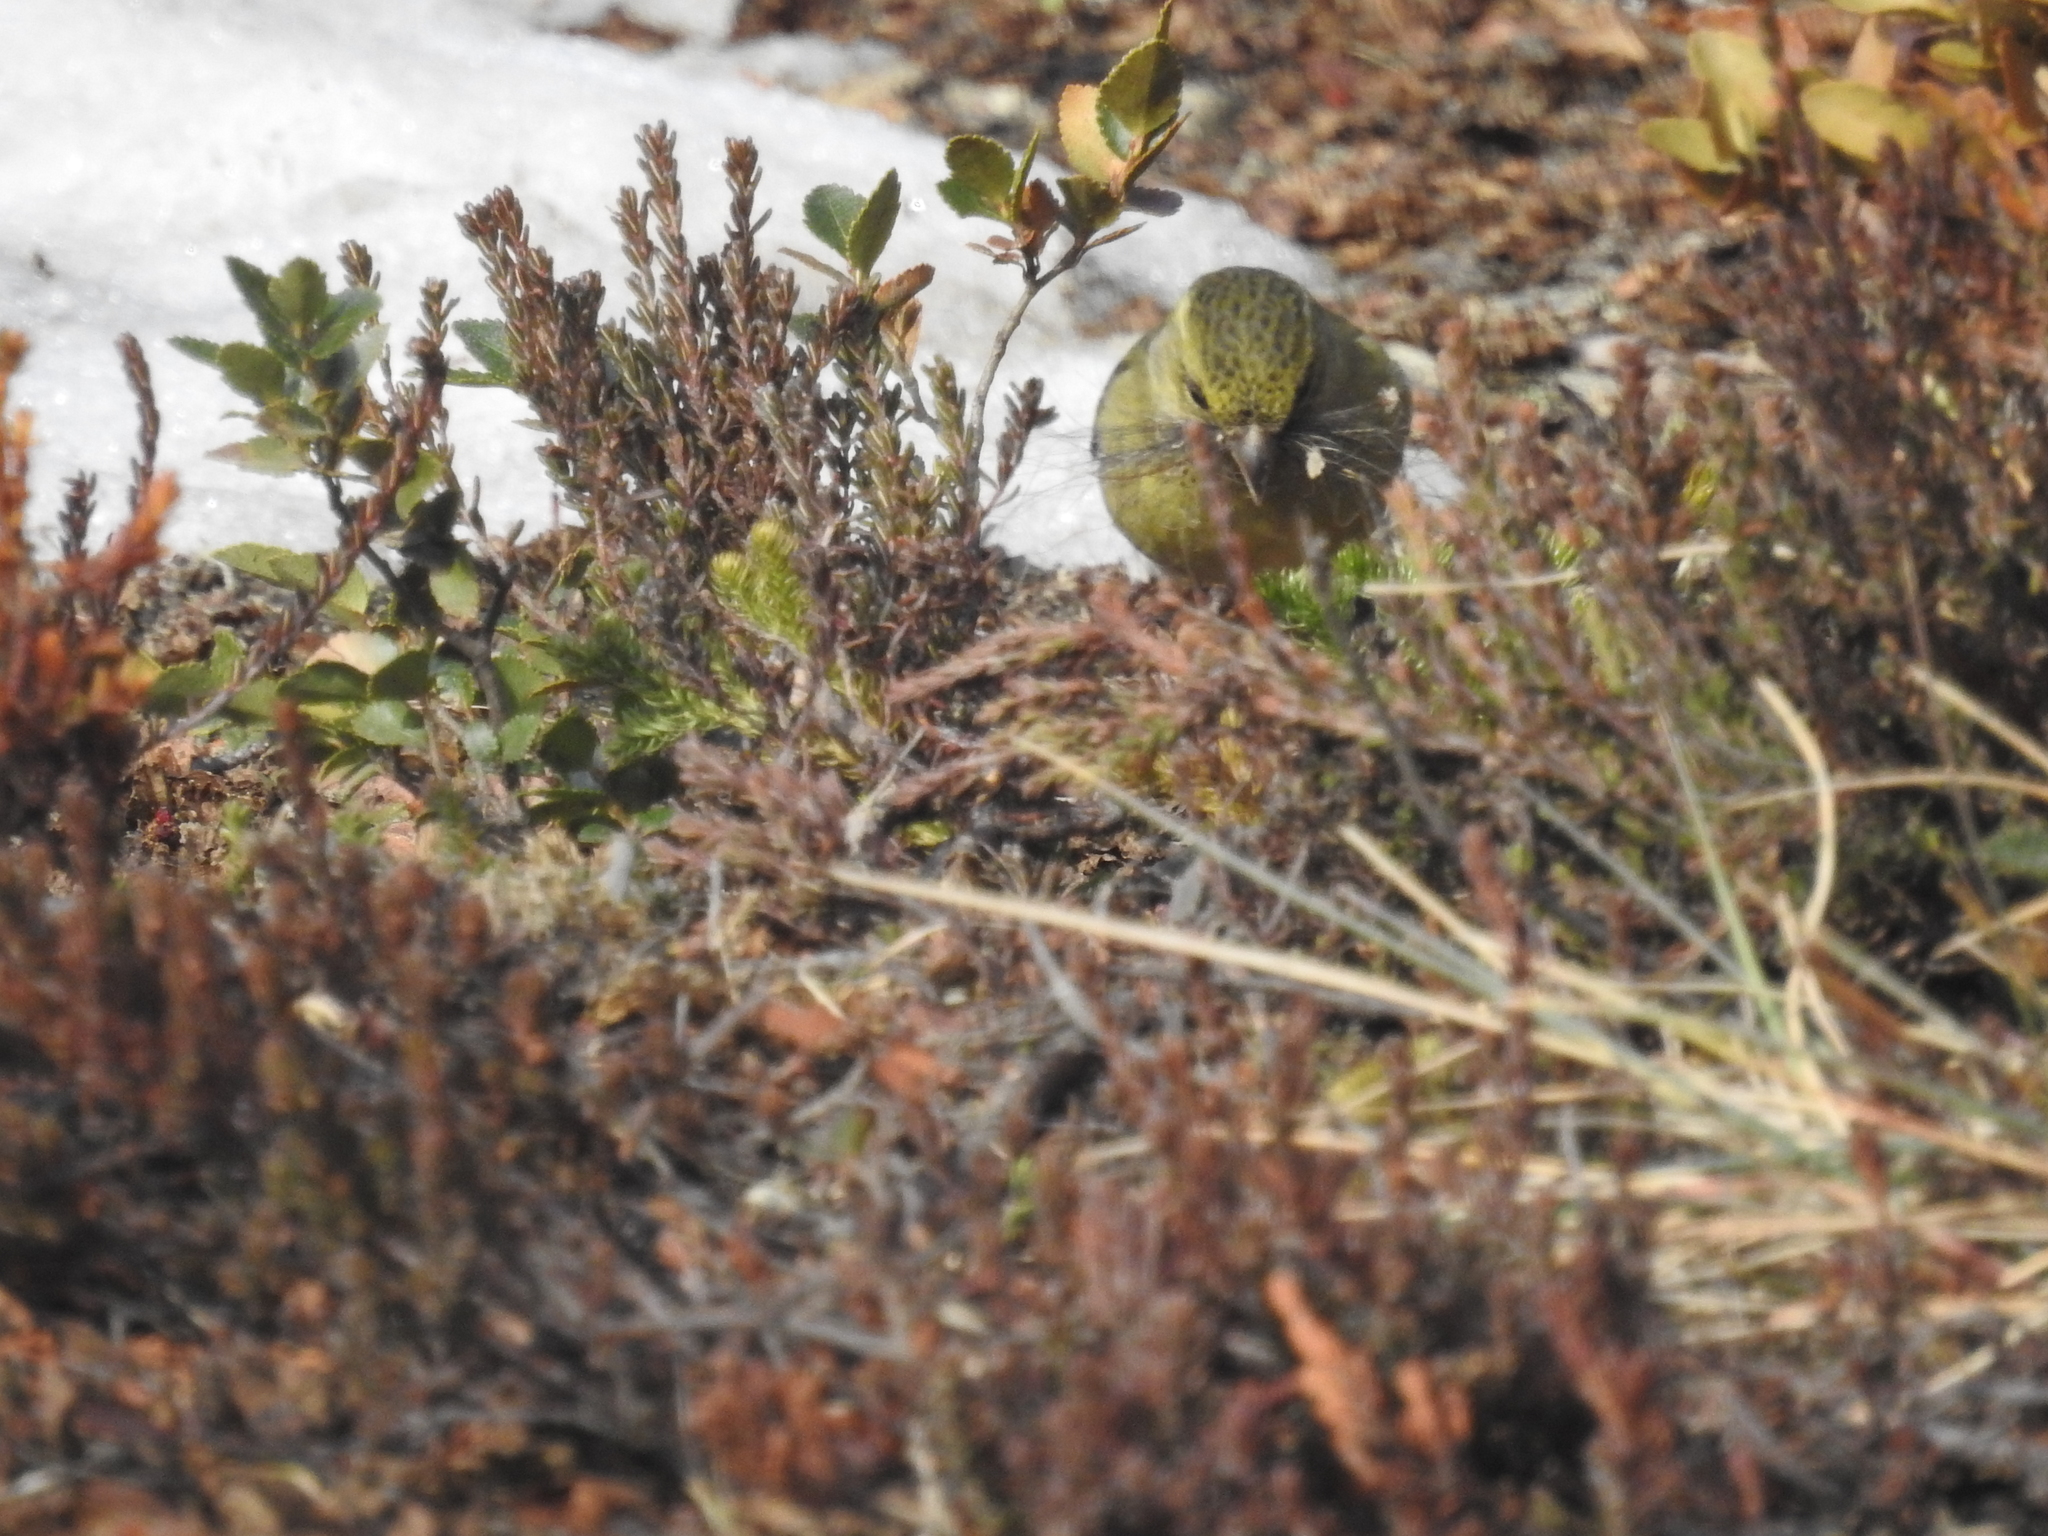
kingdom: Animalia
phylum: Chordata
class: Aves
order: Passeriformes
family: Fringillidae
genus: Spinus
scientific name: Spinus barbatus
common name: Black-chinned siskin
